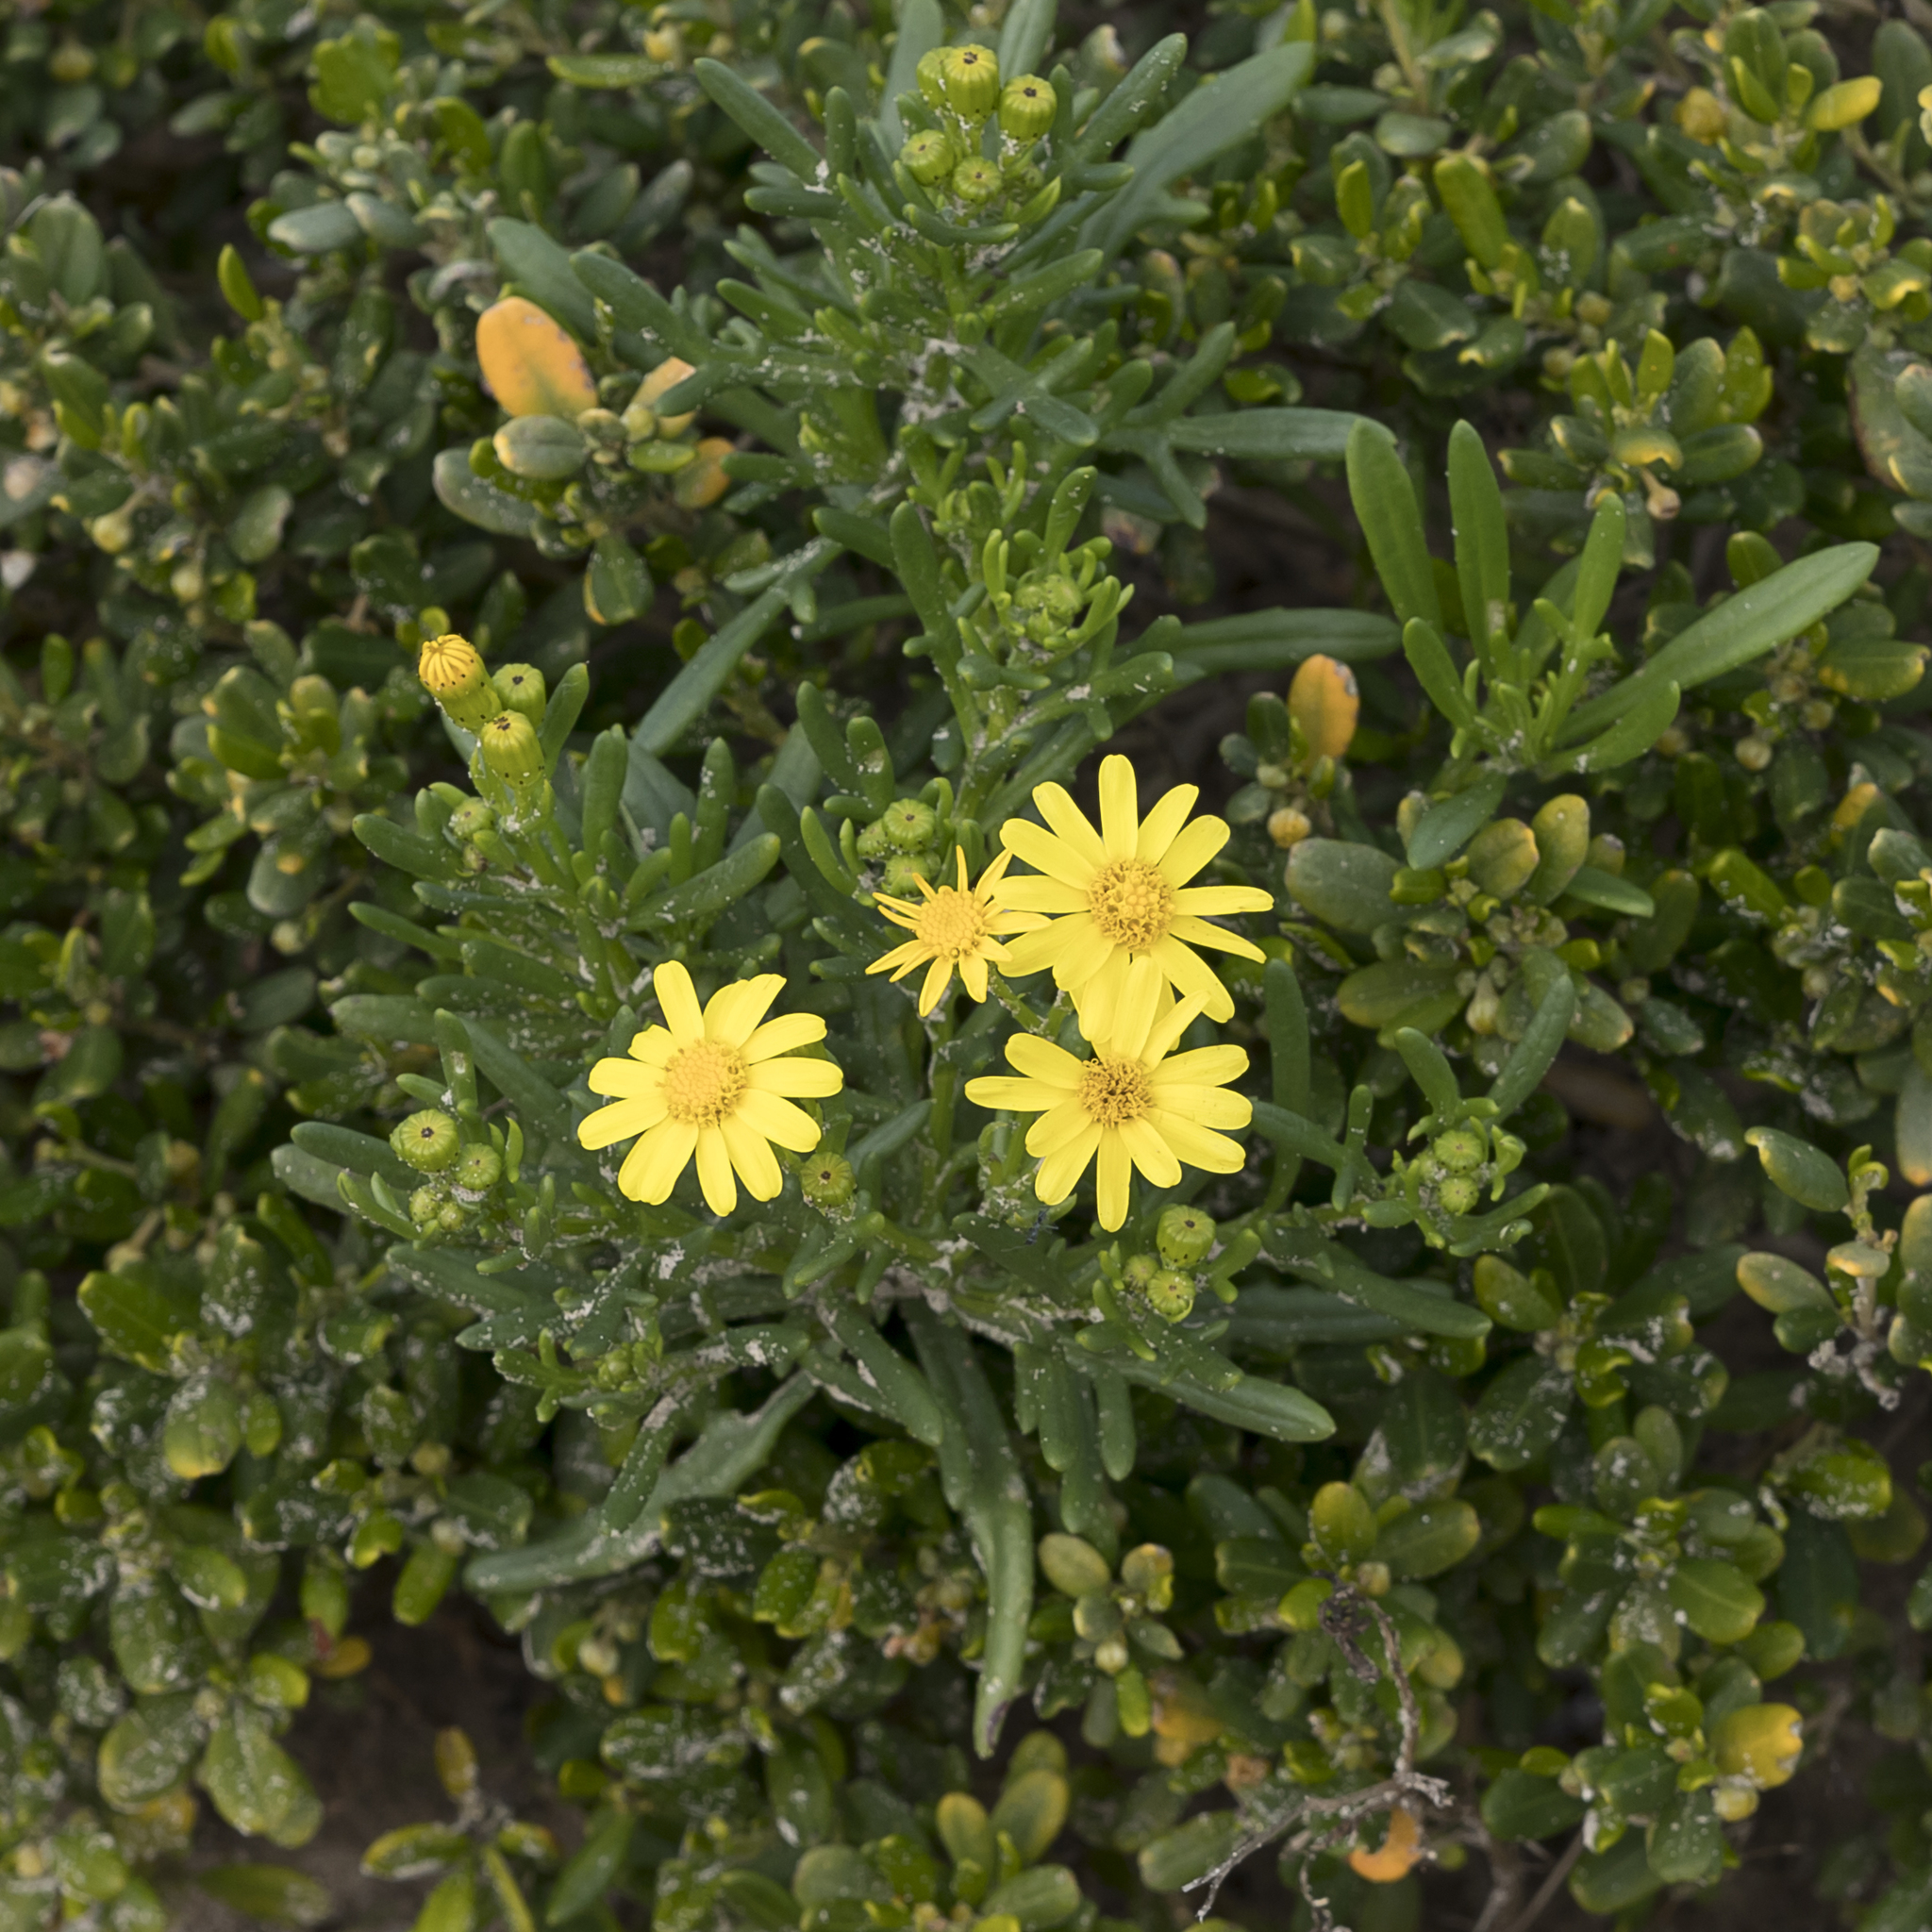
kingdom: Plantae
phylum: Tracheophyta
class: Magnoliopsida
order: Asterales
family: Asteraceae
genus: Senecio
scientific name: Senecio pinnatifolius
